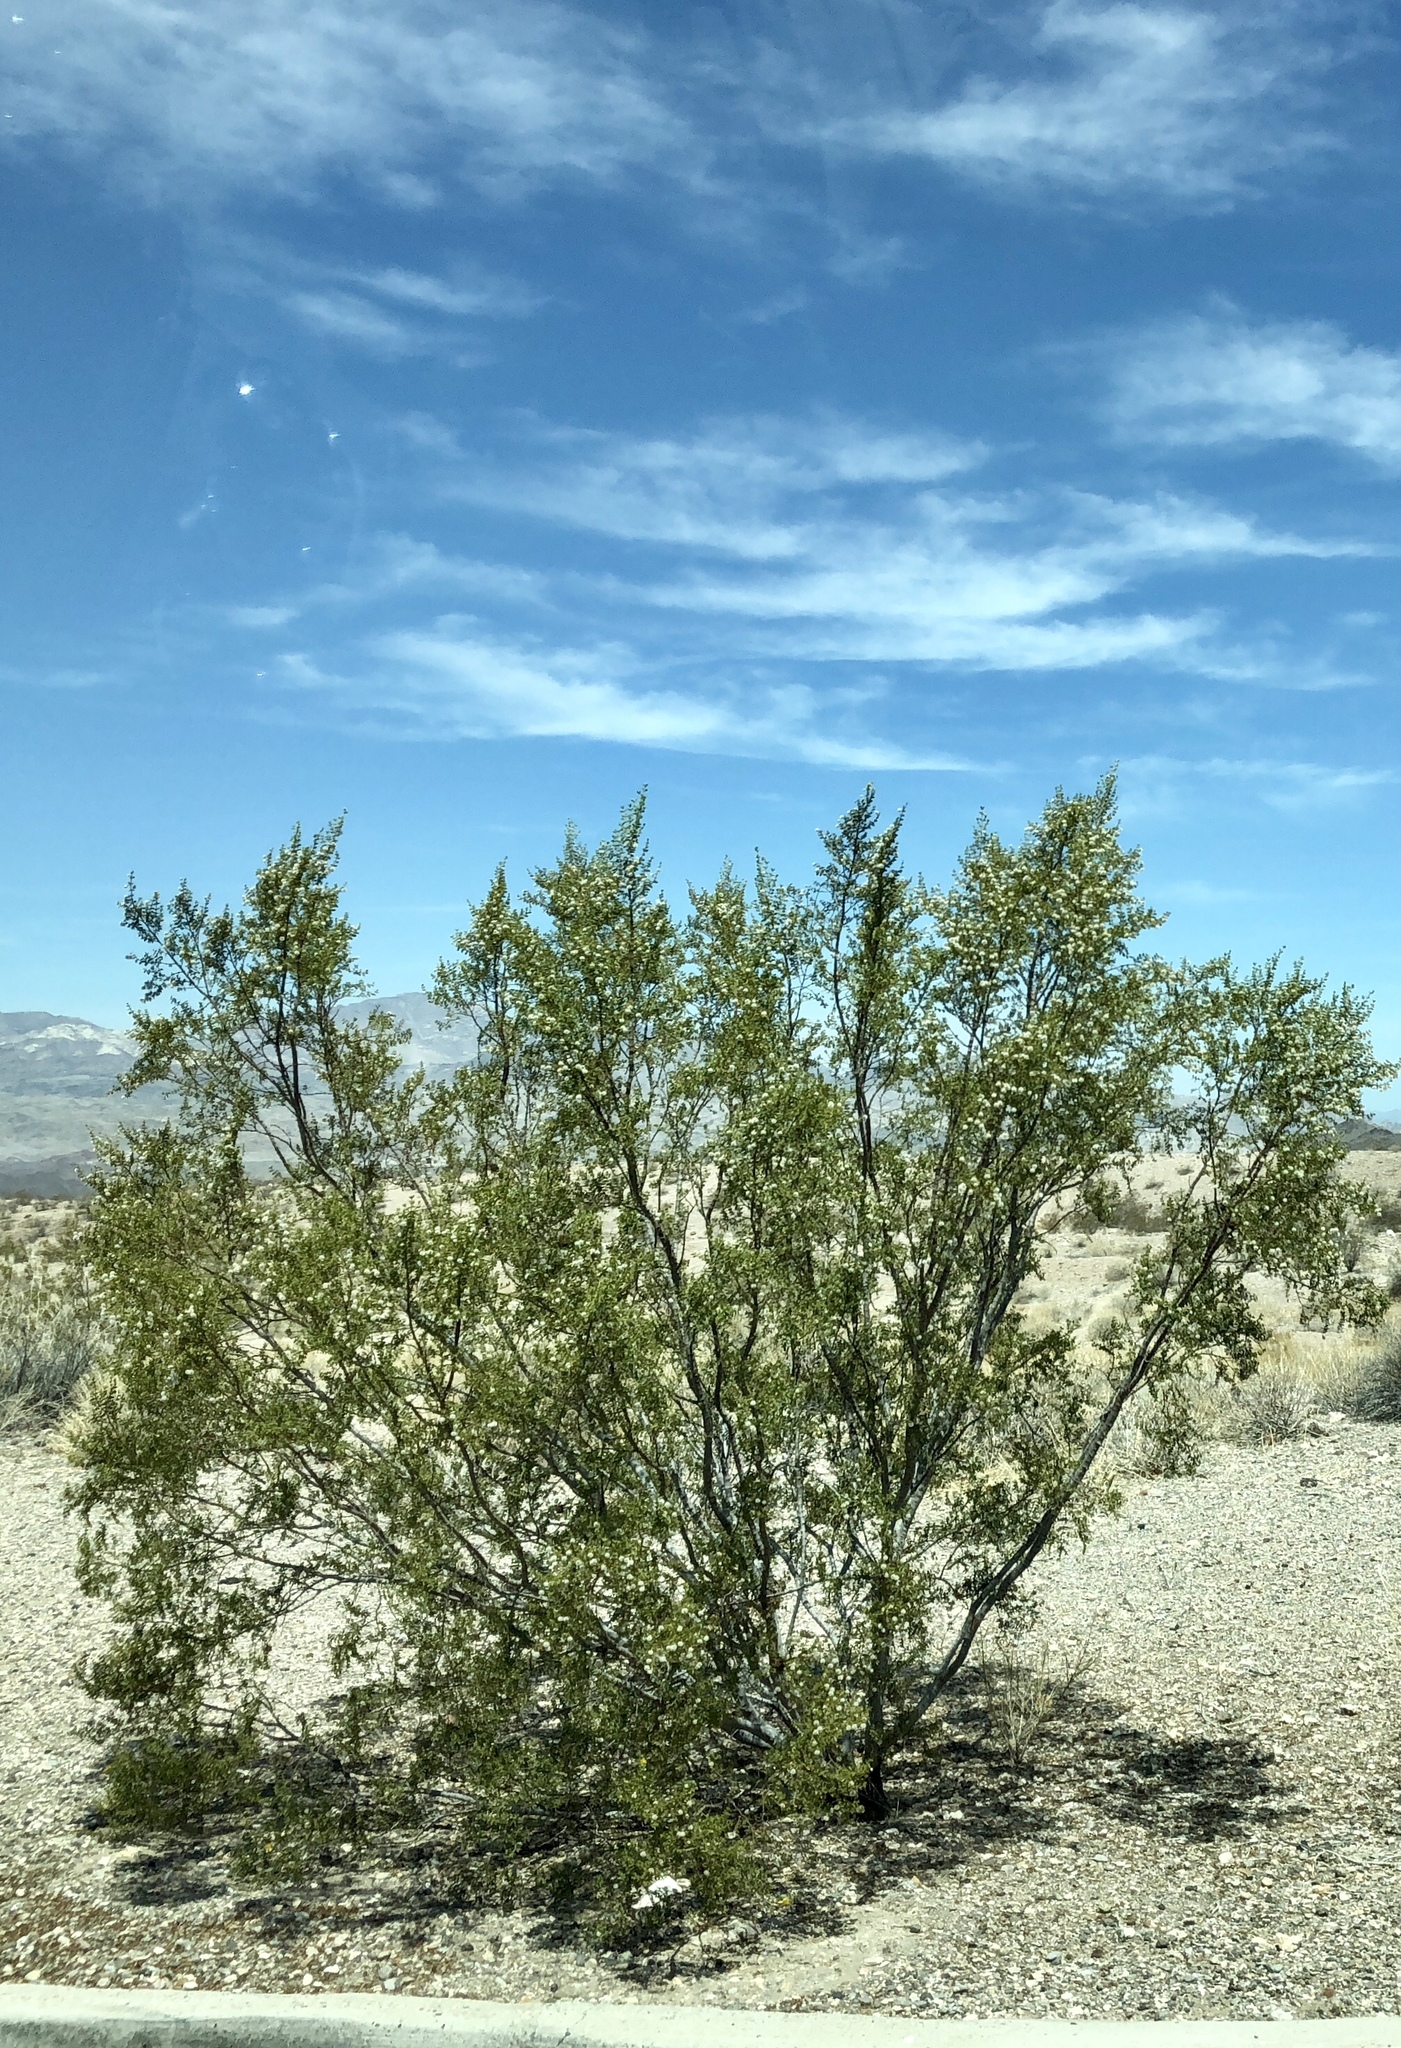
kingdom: Plantae
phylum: Tracheophyta
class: Magnoliopsida
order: Zygophyllales
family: Zygophyllaceae
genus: Larrea
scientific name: Larrea tridentata
